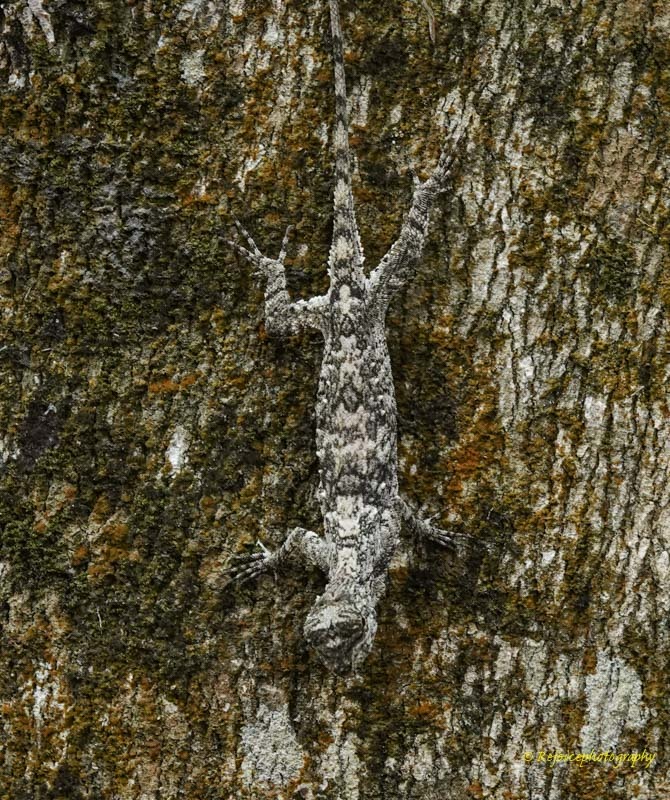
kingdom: Animalia
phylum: Chordata
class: Squamata
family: Agamidae
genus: Draco
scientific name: Draco maculatus
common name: Spotted flying dragon
